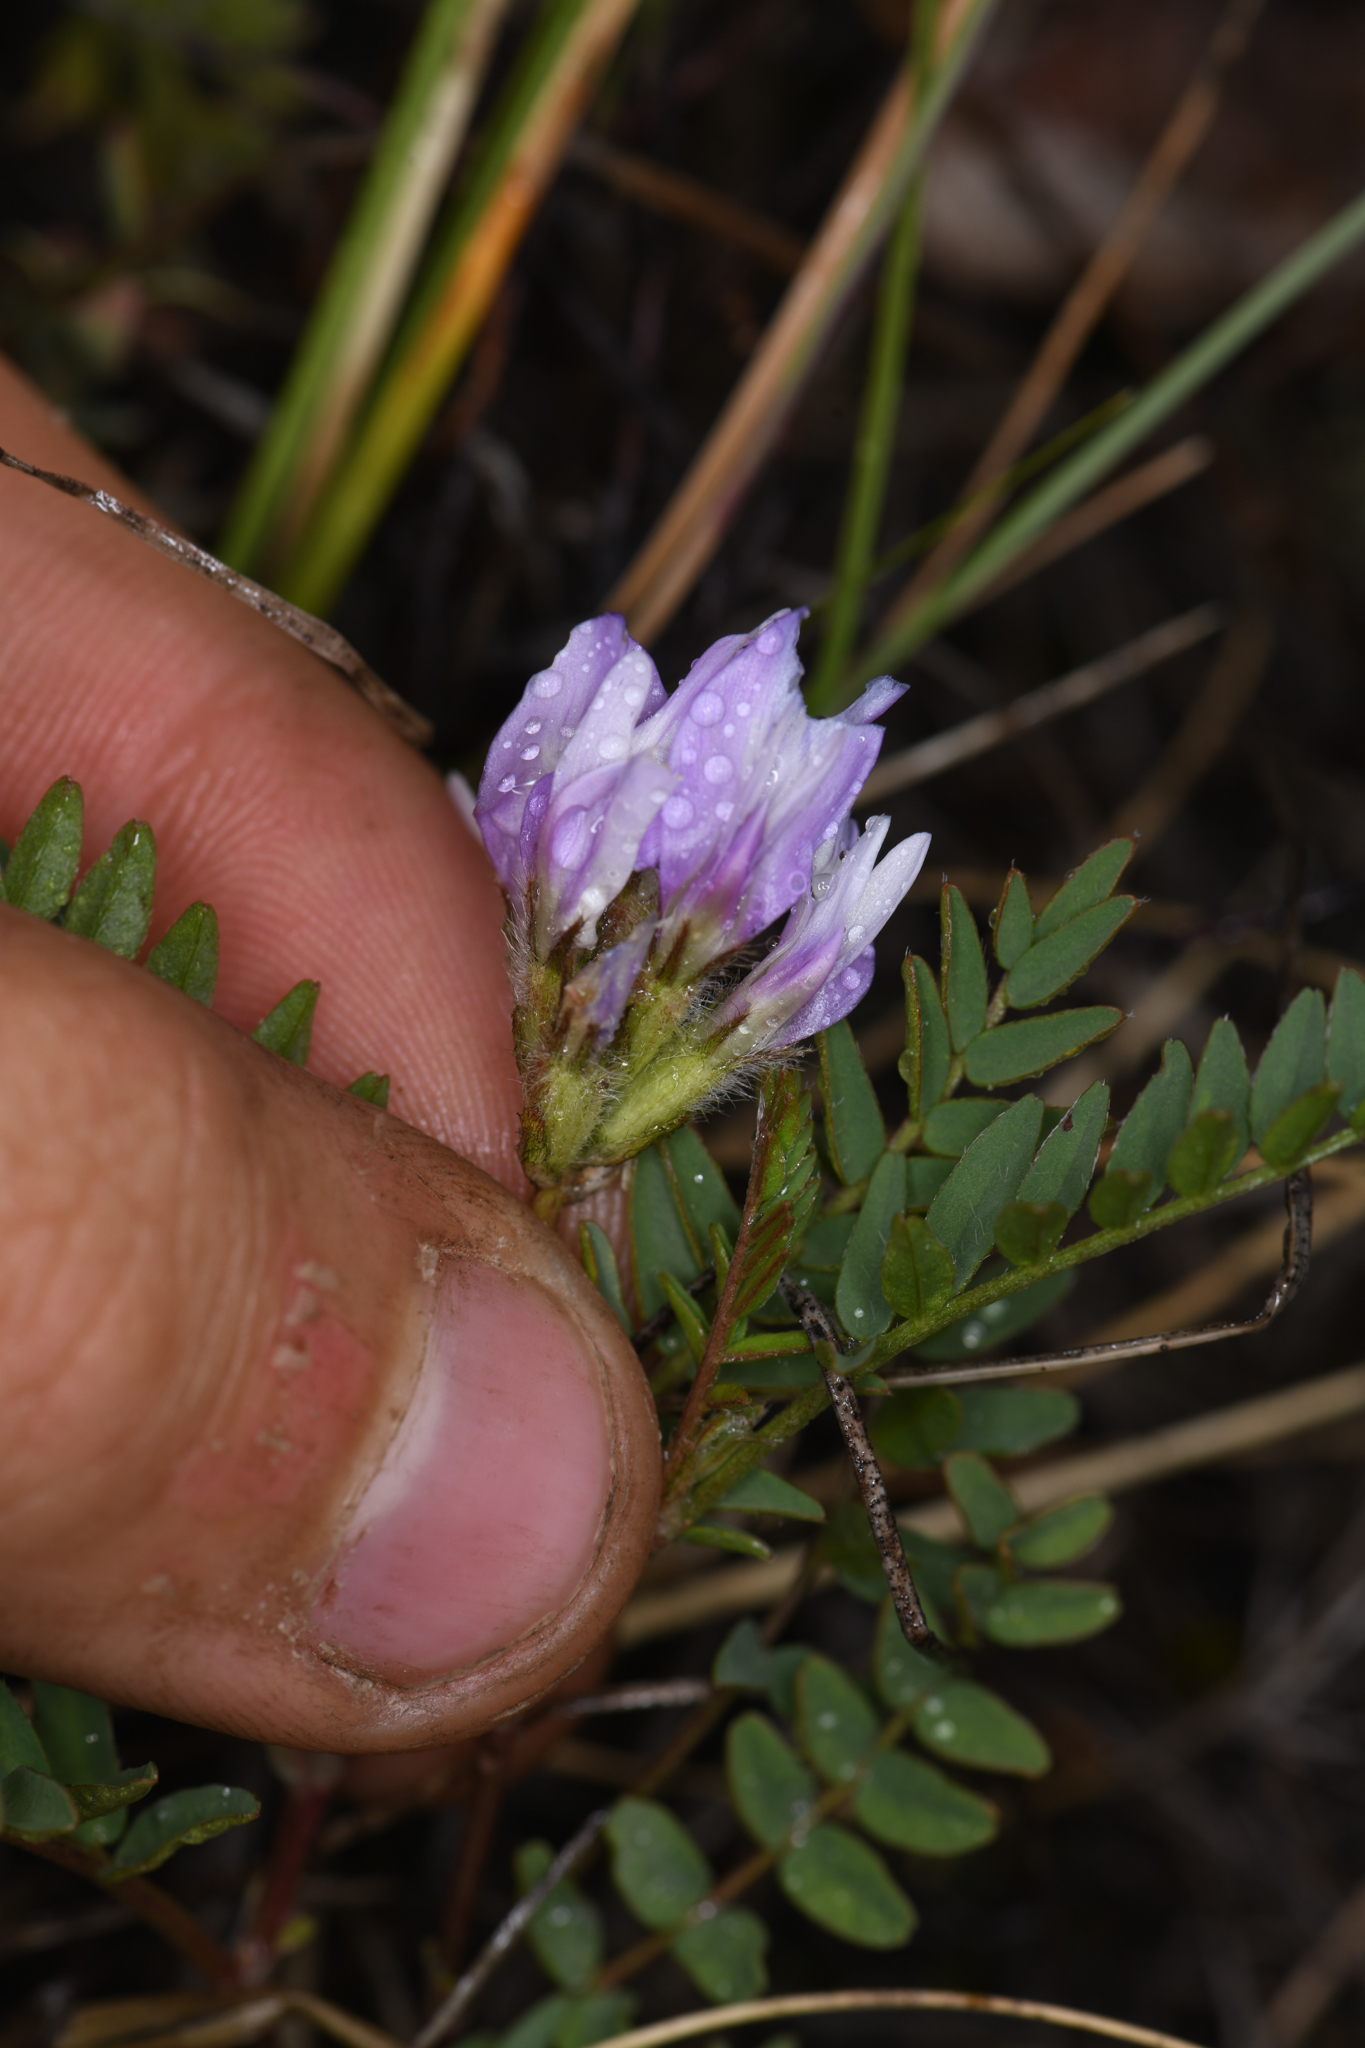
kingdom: Plantae
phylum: Tracheophyta
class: Magnoliopsida
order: Fabales
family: Fabaceae
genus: Astragalus
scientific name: Astragalus agrestis
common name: Field milk-vetch
